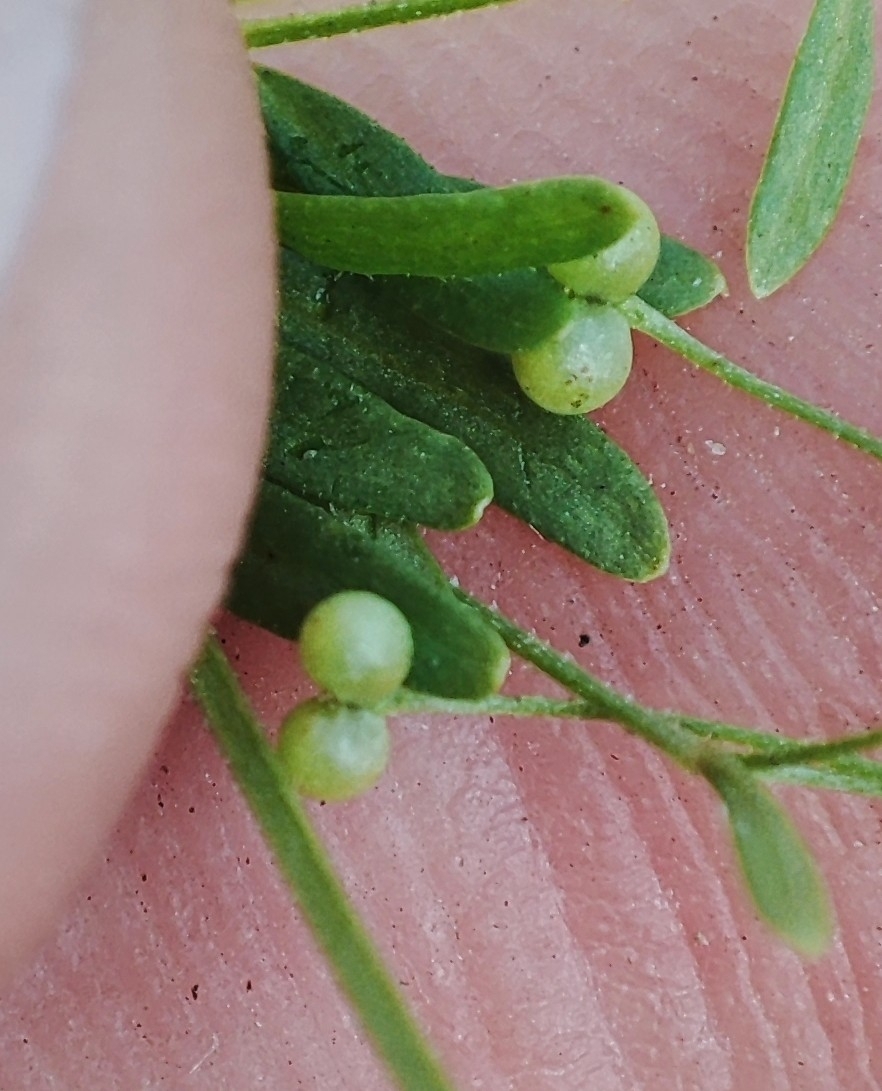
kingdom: Plantae
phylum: Tracheophyta
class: Magnoliopsida
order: Gentianales
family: Rubiaceae
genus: Galium
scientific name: Galium trifidum
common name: Small bedstraw
